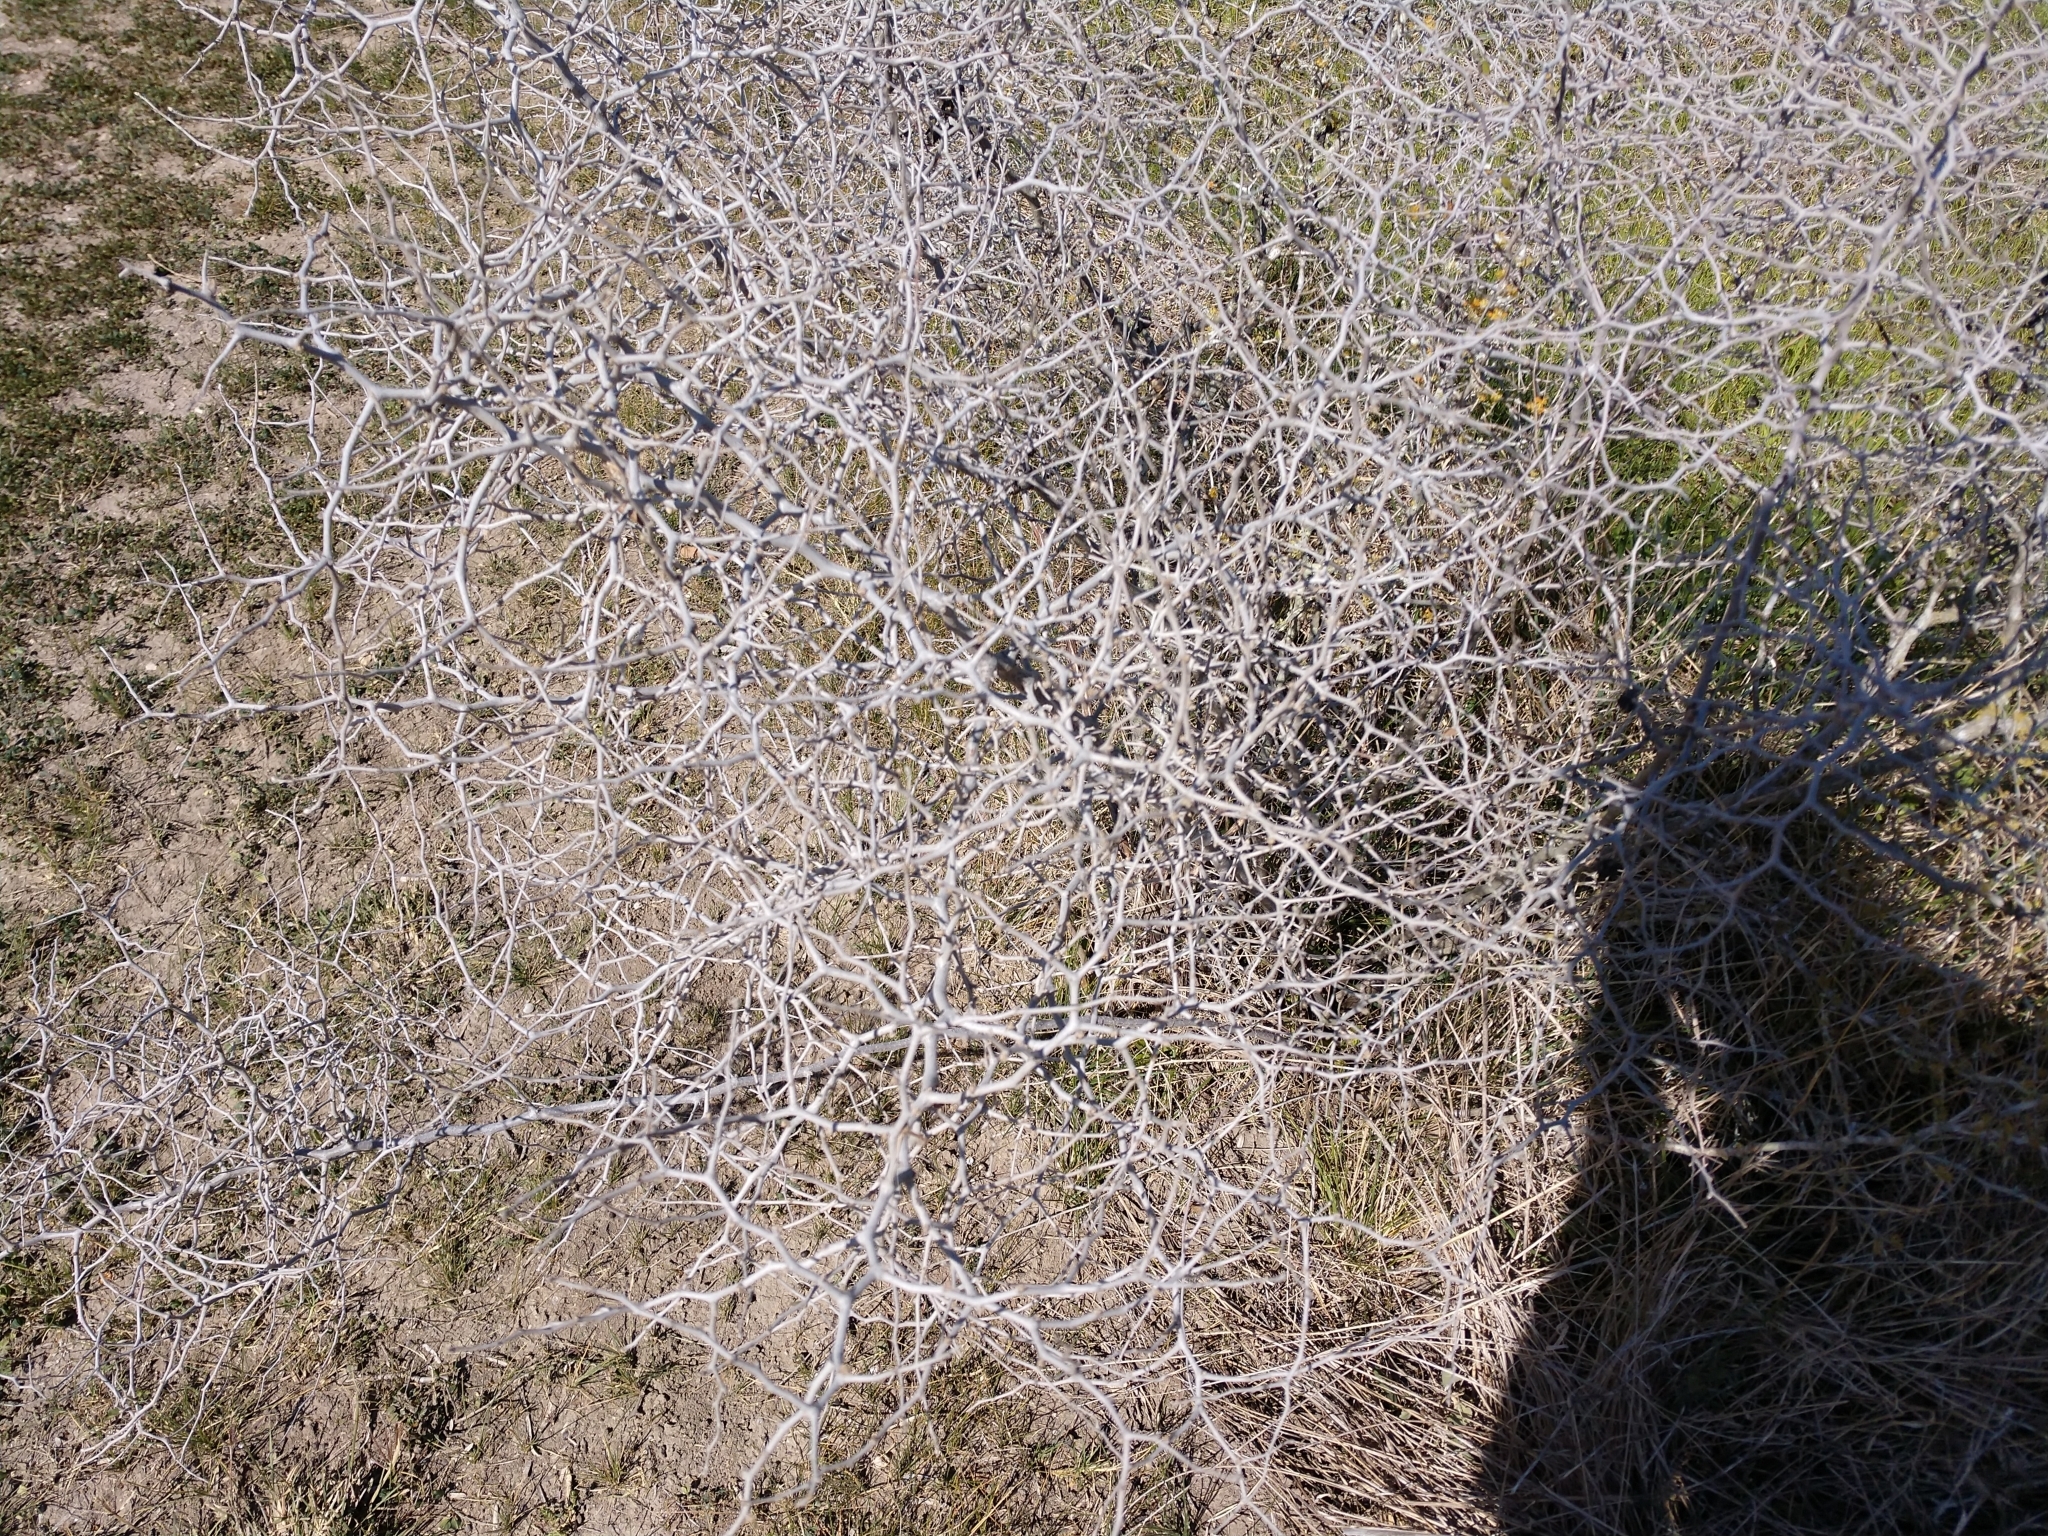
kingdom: Plantae
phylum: Tracheophyta
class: Magnoliopsida
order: Rosales
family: Rhamnaceae
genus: Colubrina
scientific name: Colubrina texensis
